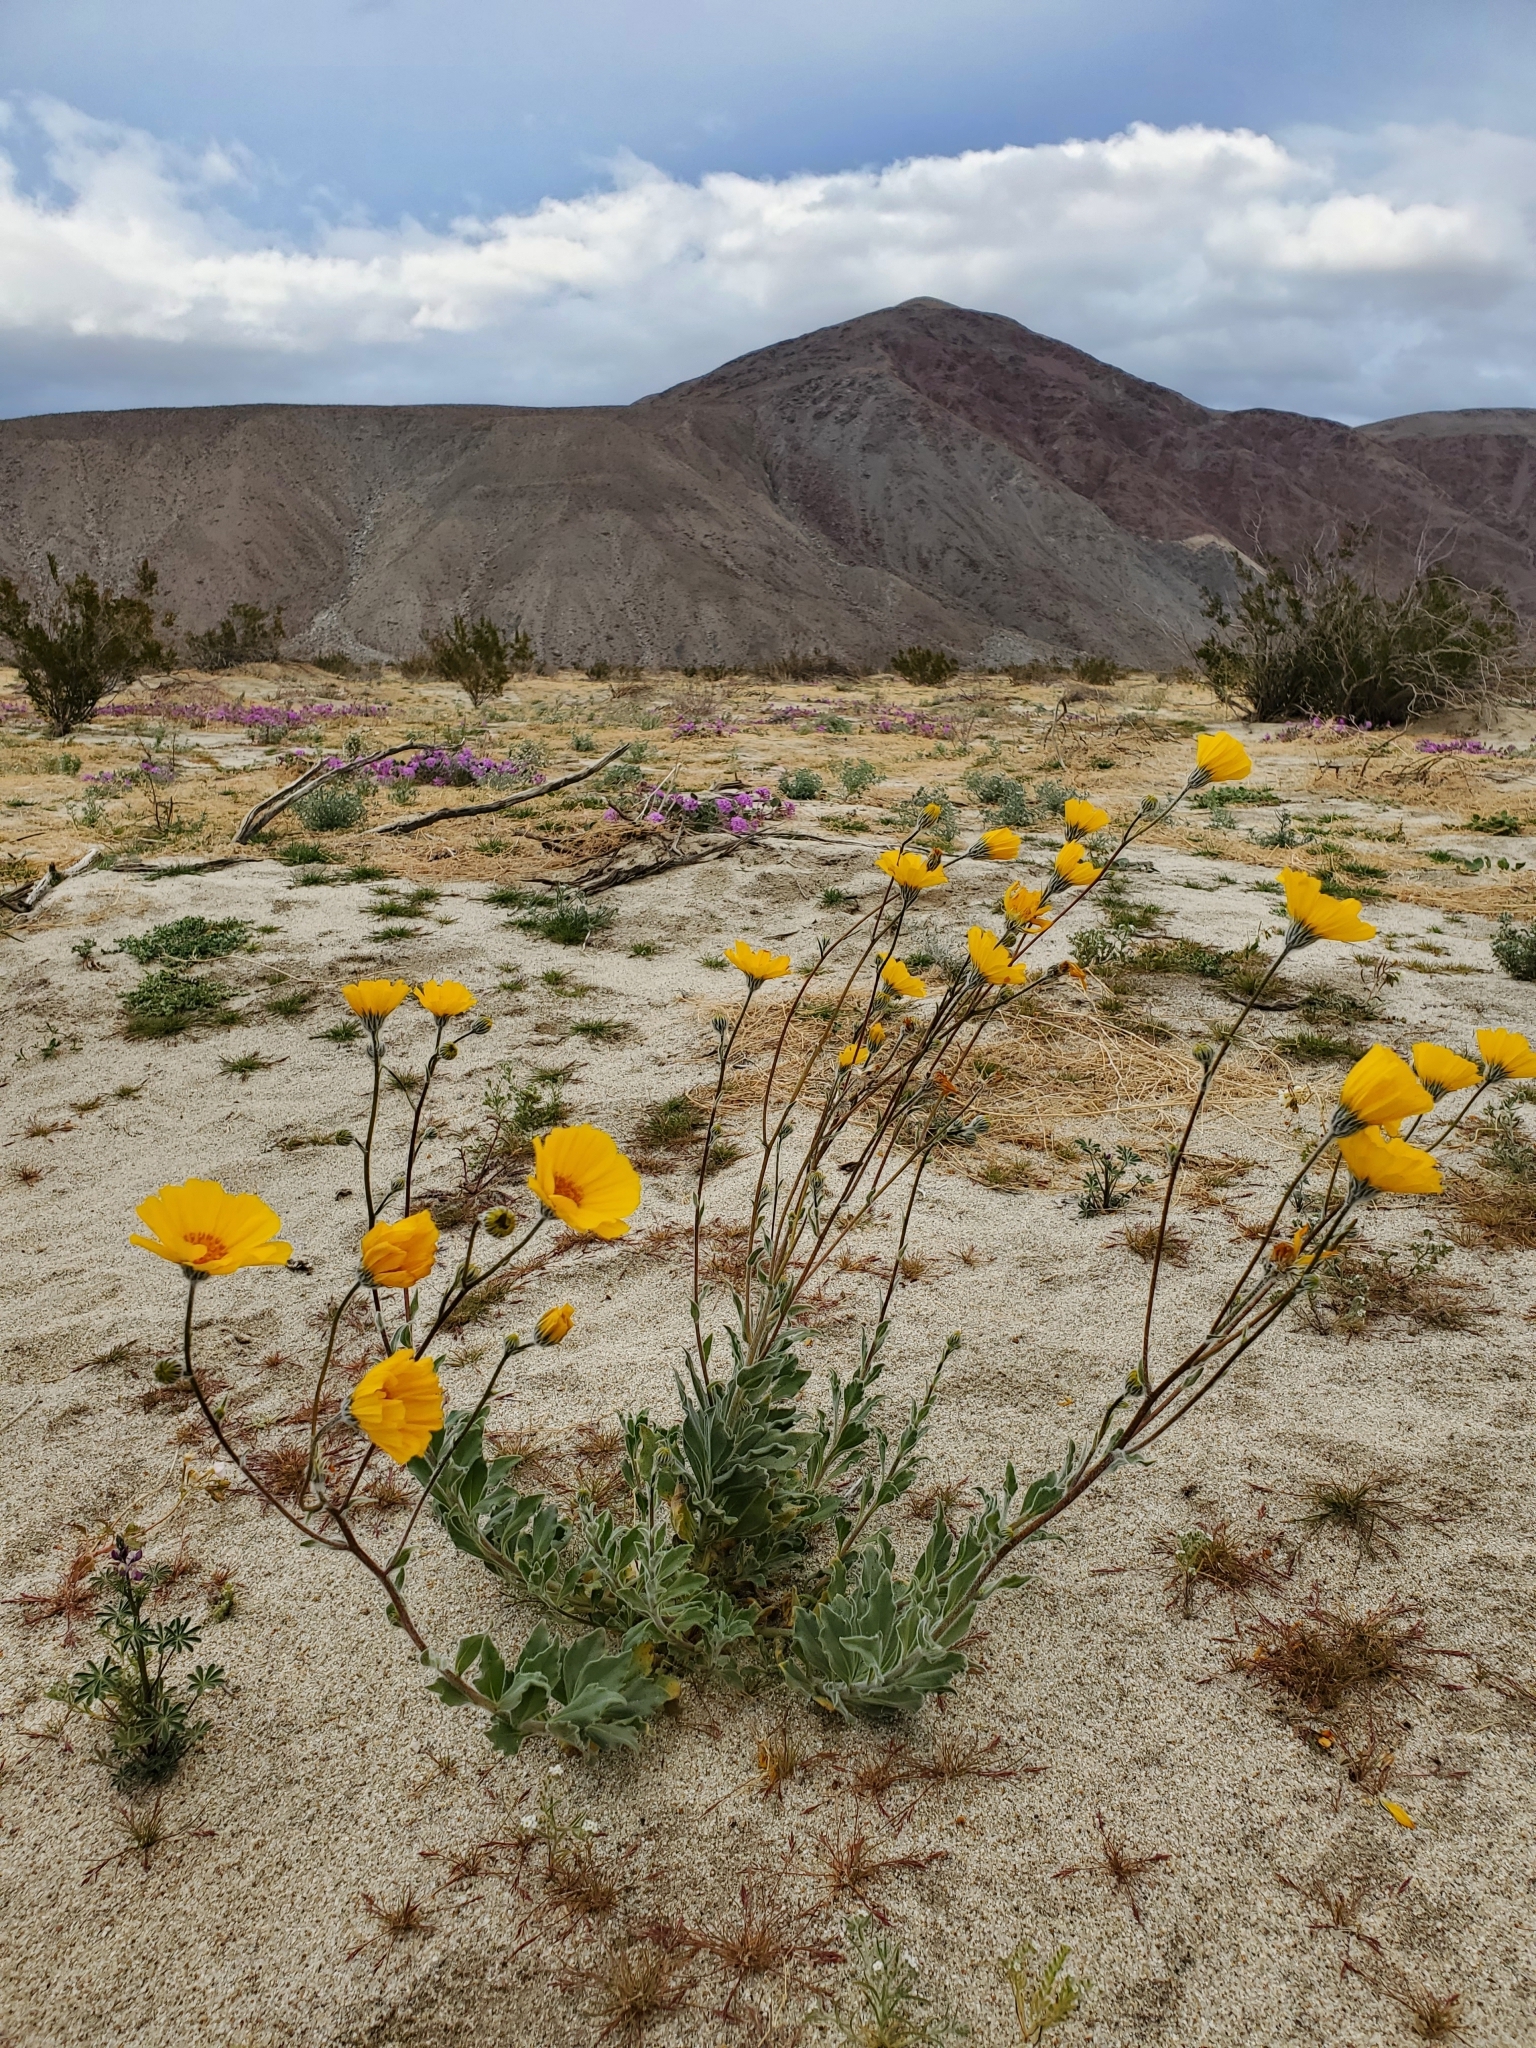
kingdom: Plantae
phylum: Tracheophyta
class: Magnoliopsida
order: Asterales
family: Asteraceae
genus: Geraea
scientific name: Geraea canescens
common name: Desert-gold
